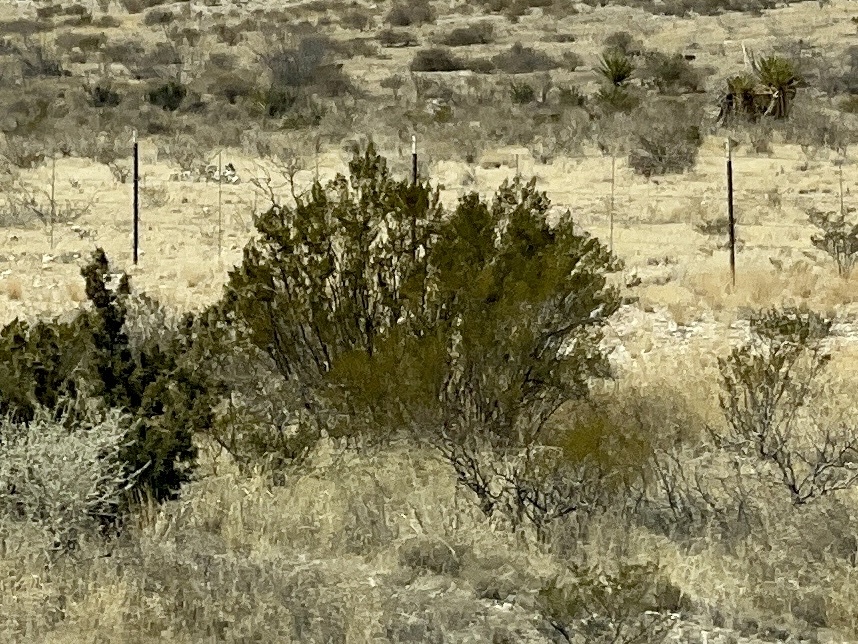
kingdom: Plantae
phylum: Tracheophyta
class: Magnoliopsida
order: Zygophyllales
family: Zygophyllaceae
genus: Larrea
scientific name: Larrea tridentata
